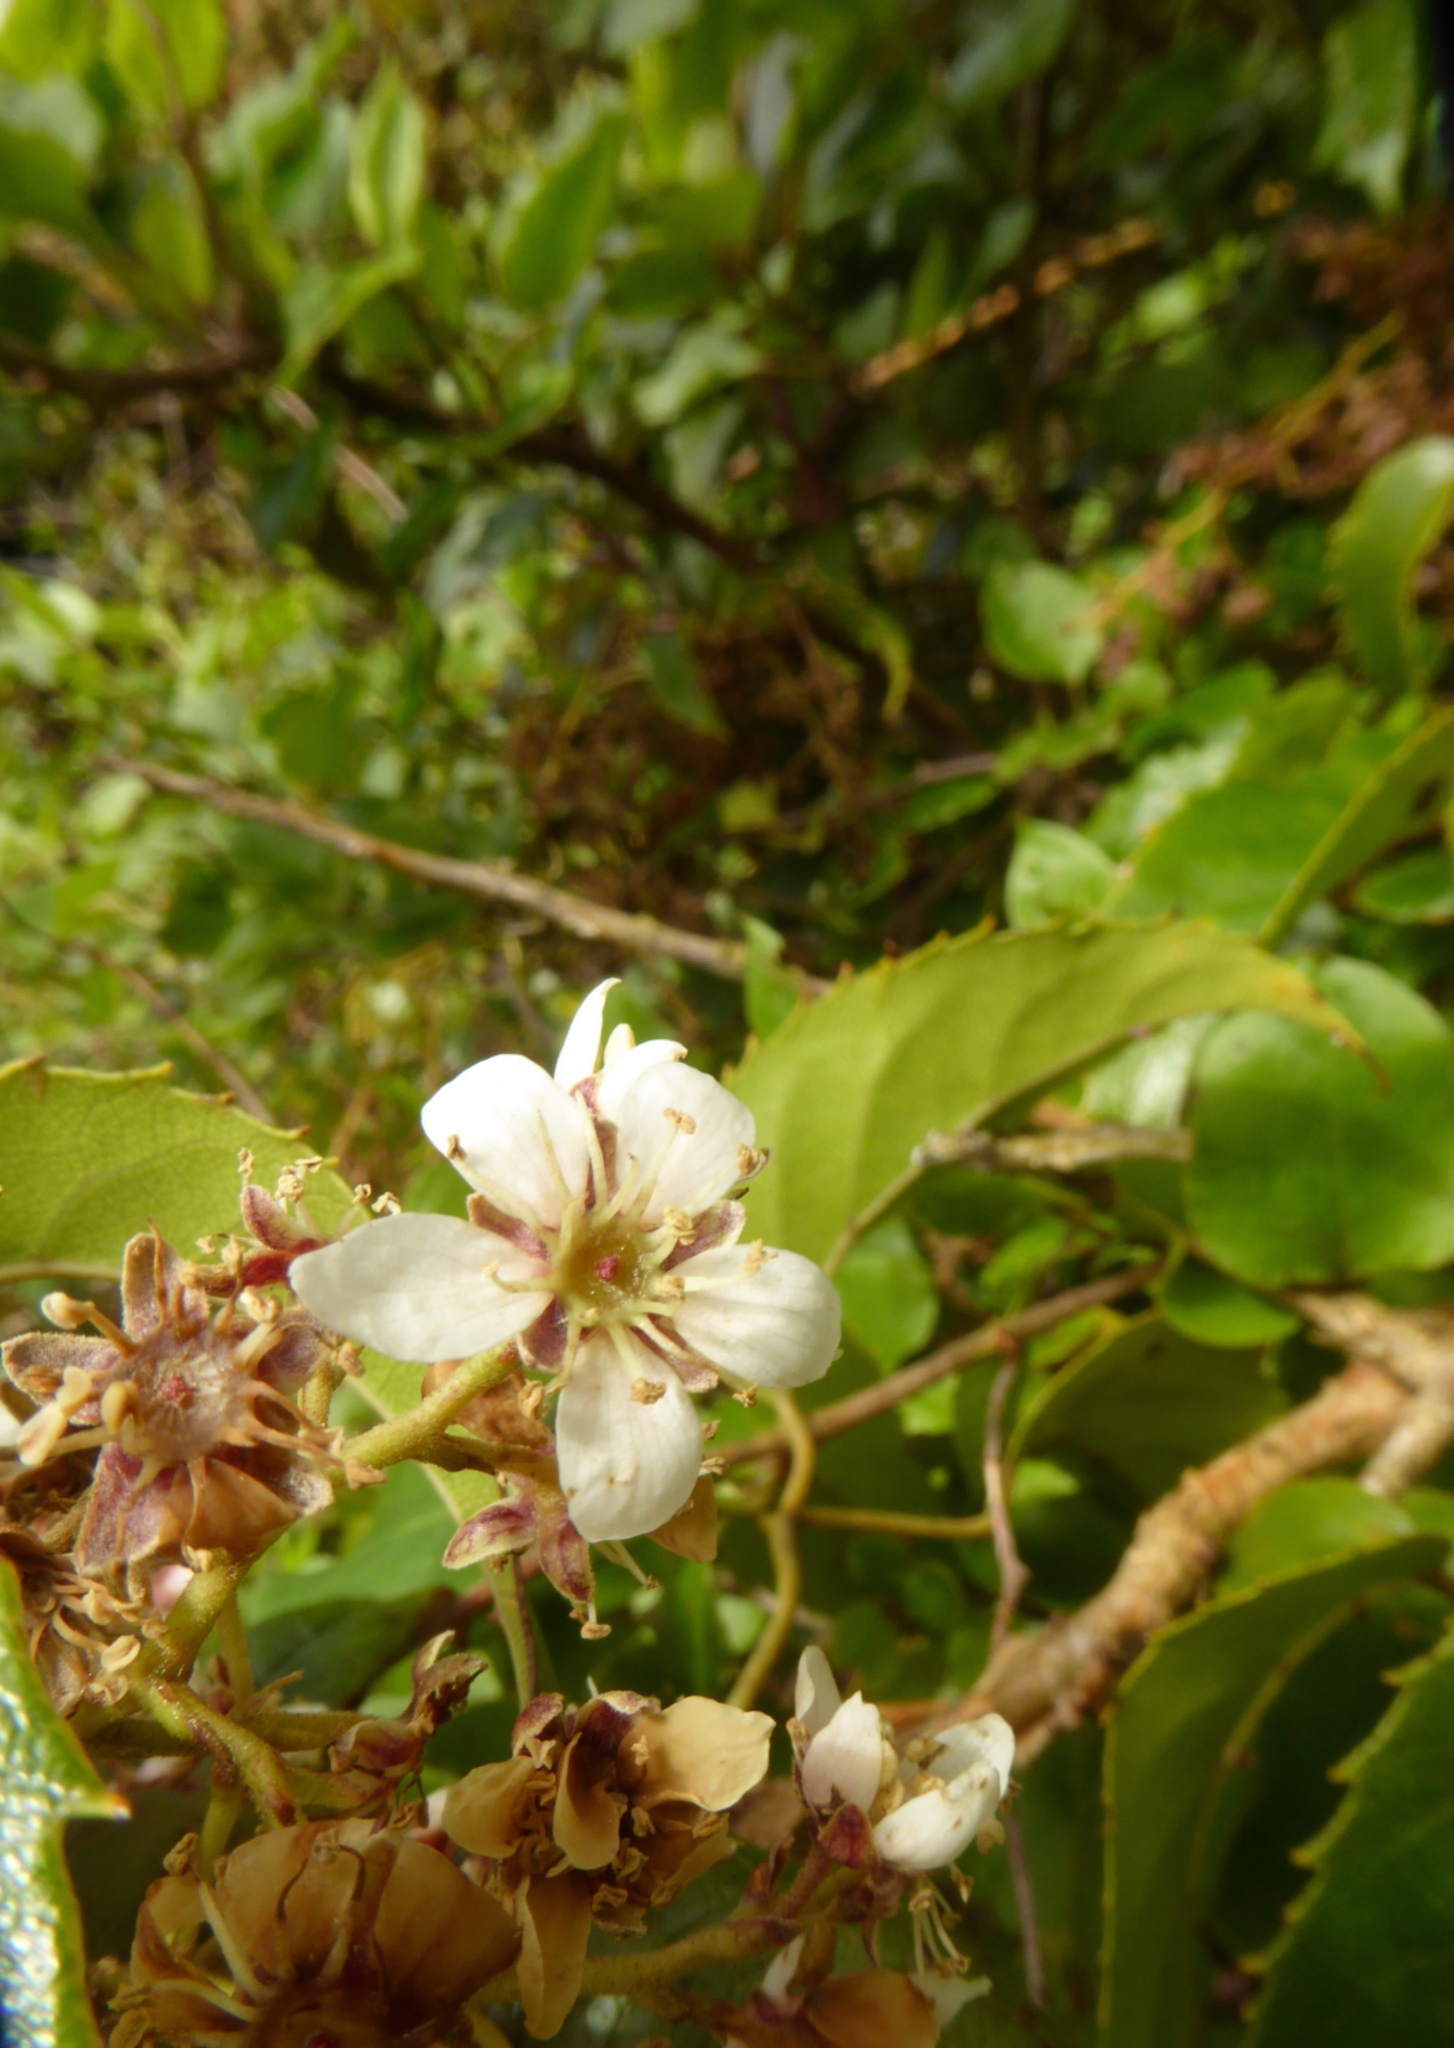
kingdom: Plantae
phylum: Tracheophyta
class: Magnoliopsida
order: Rosales
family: Rosaceae
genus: Rubus
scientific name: Rubus cissoides
